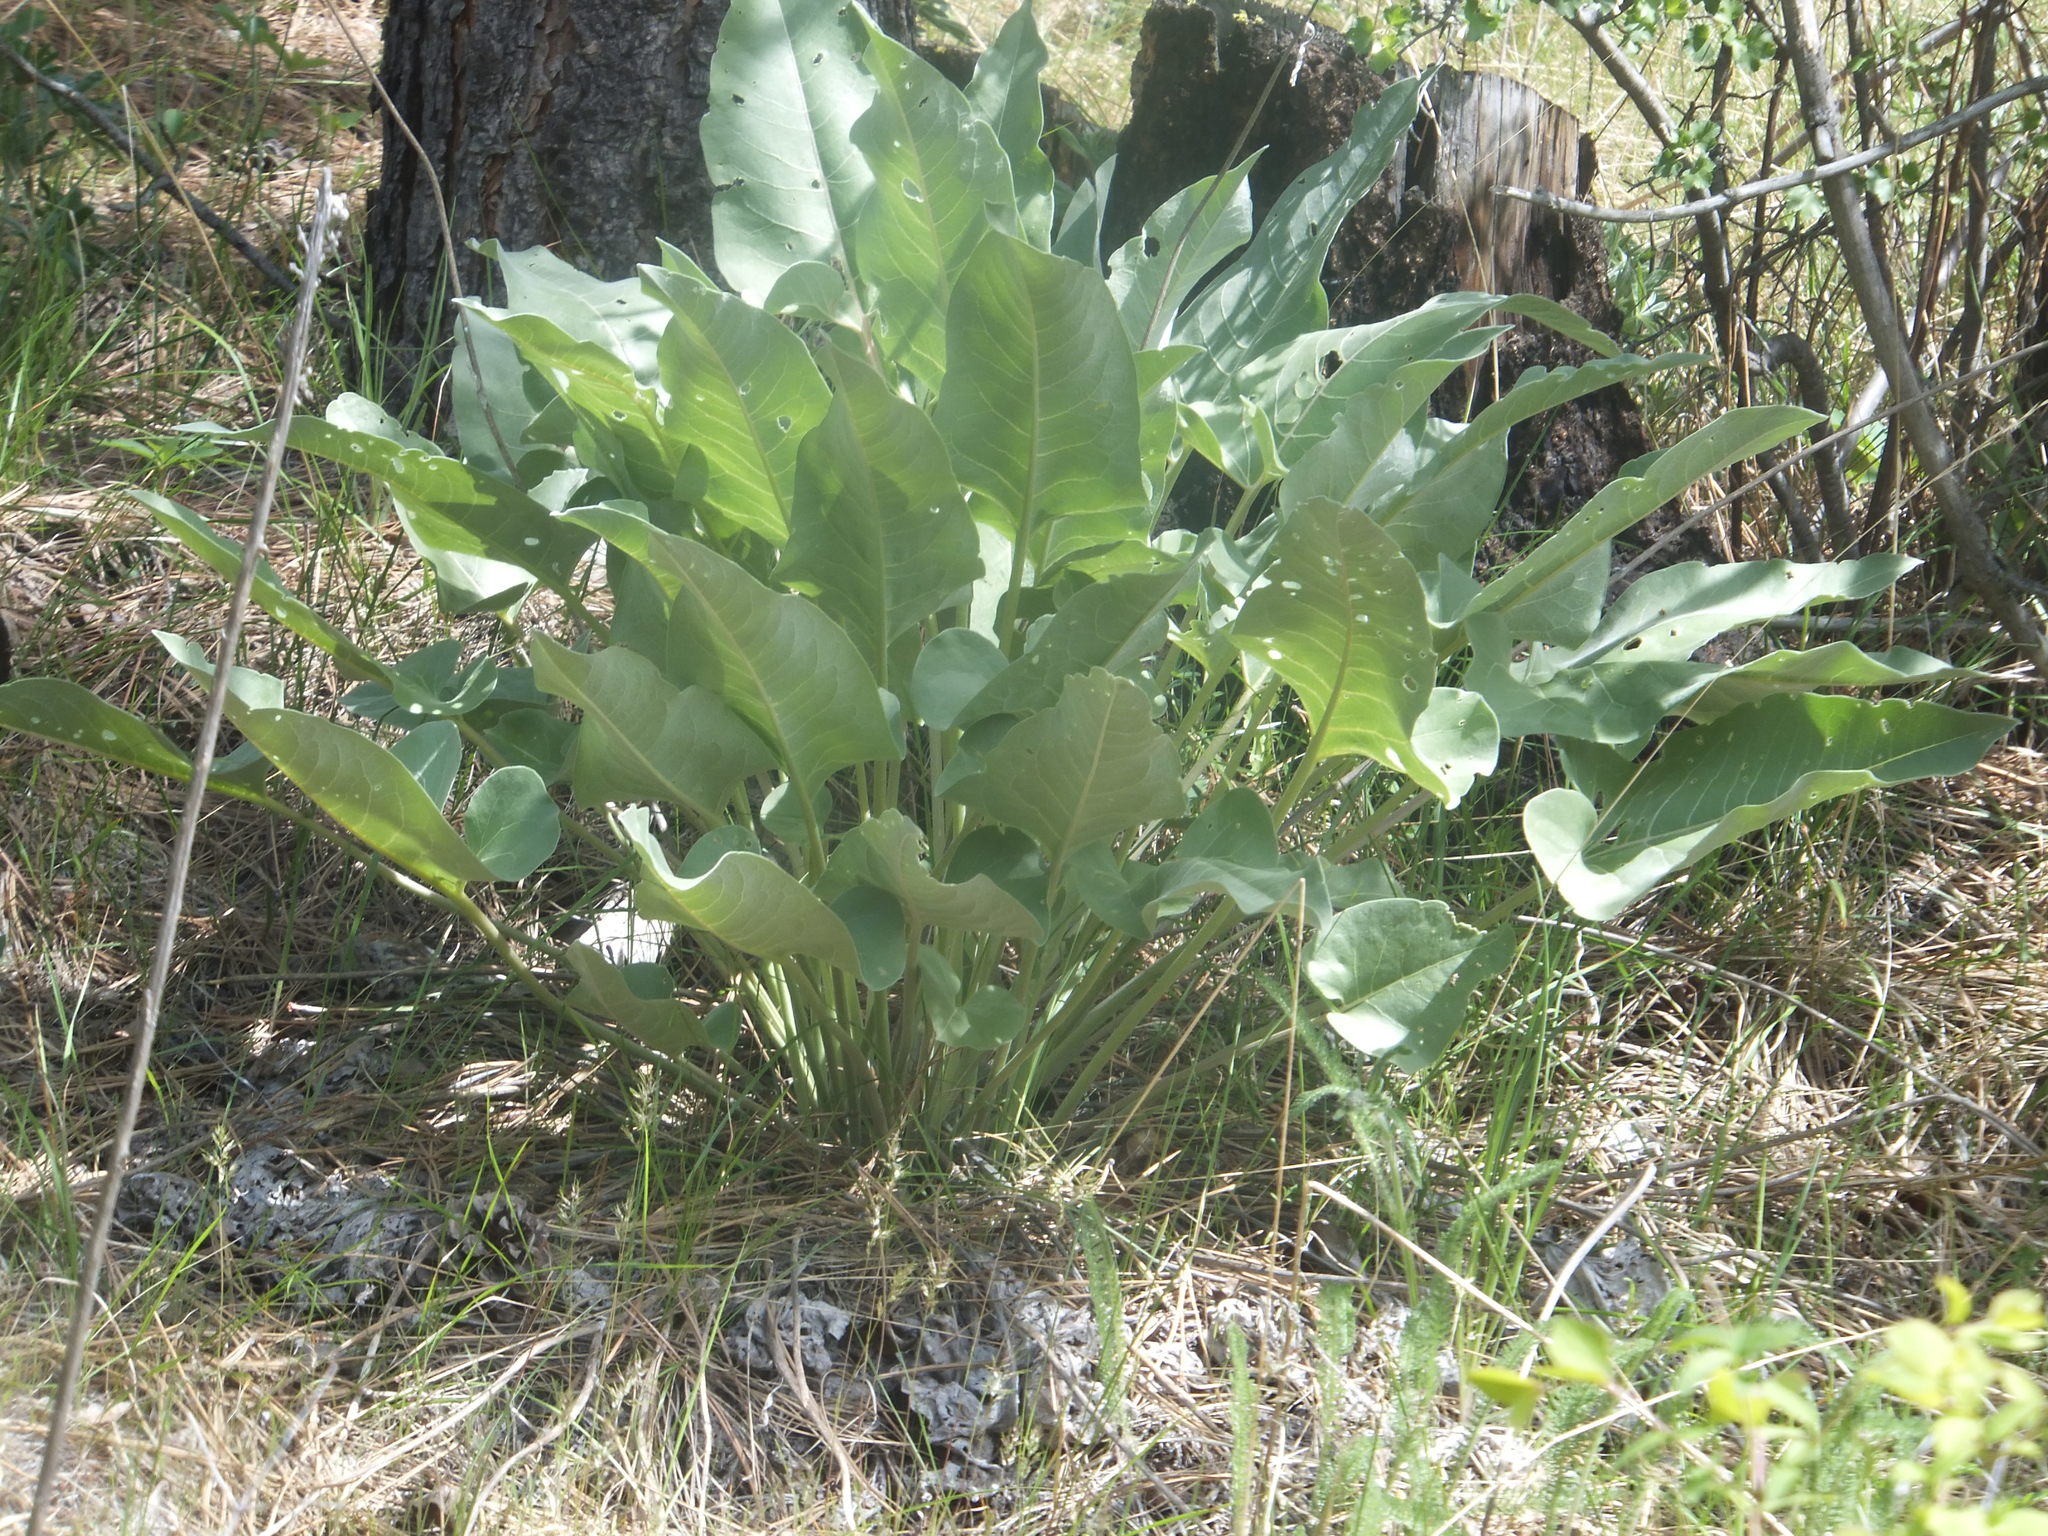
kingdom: Plantae
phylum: Tracheophyta
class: Magnoliopsida
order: Asterales
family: Asteraceae
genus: Wyethia
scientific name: Wyethia sagittata
